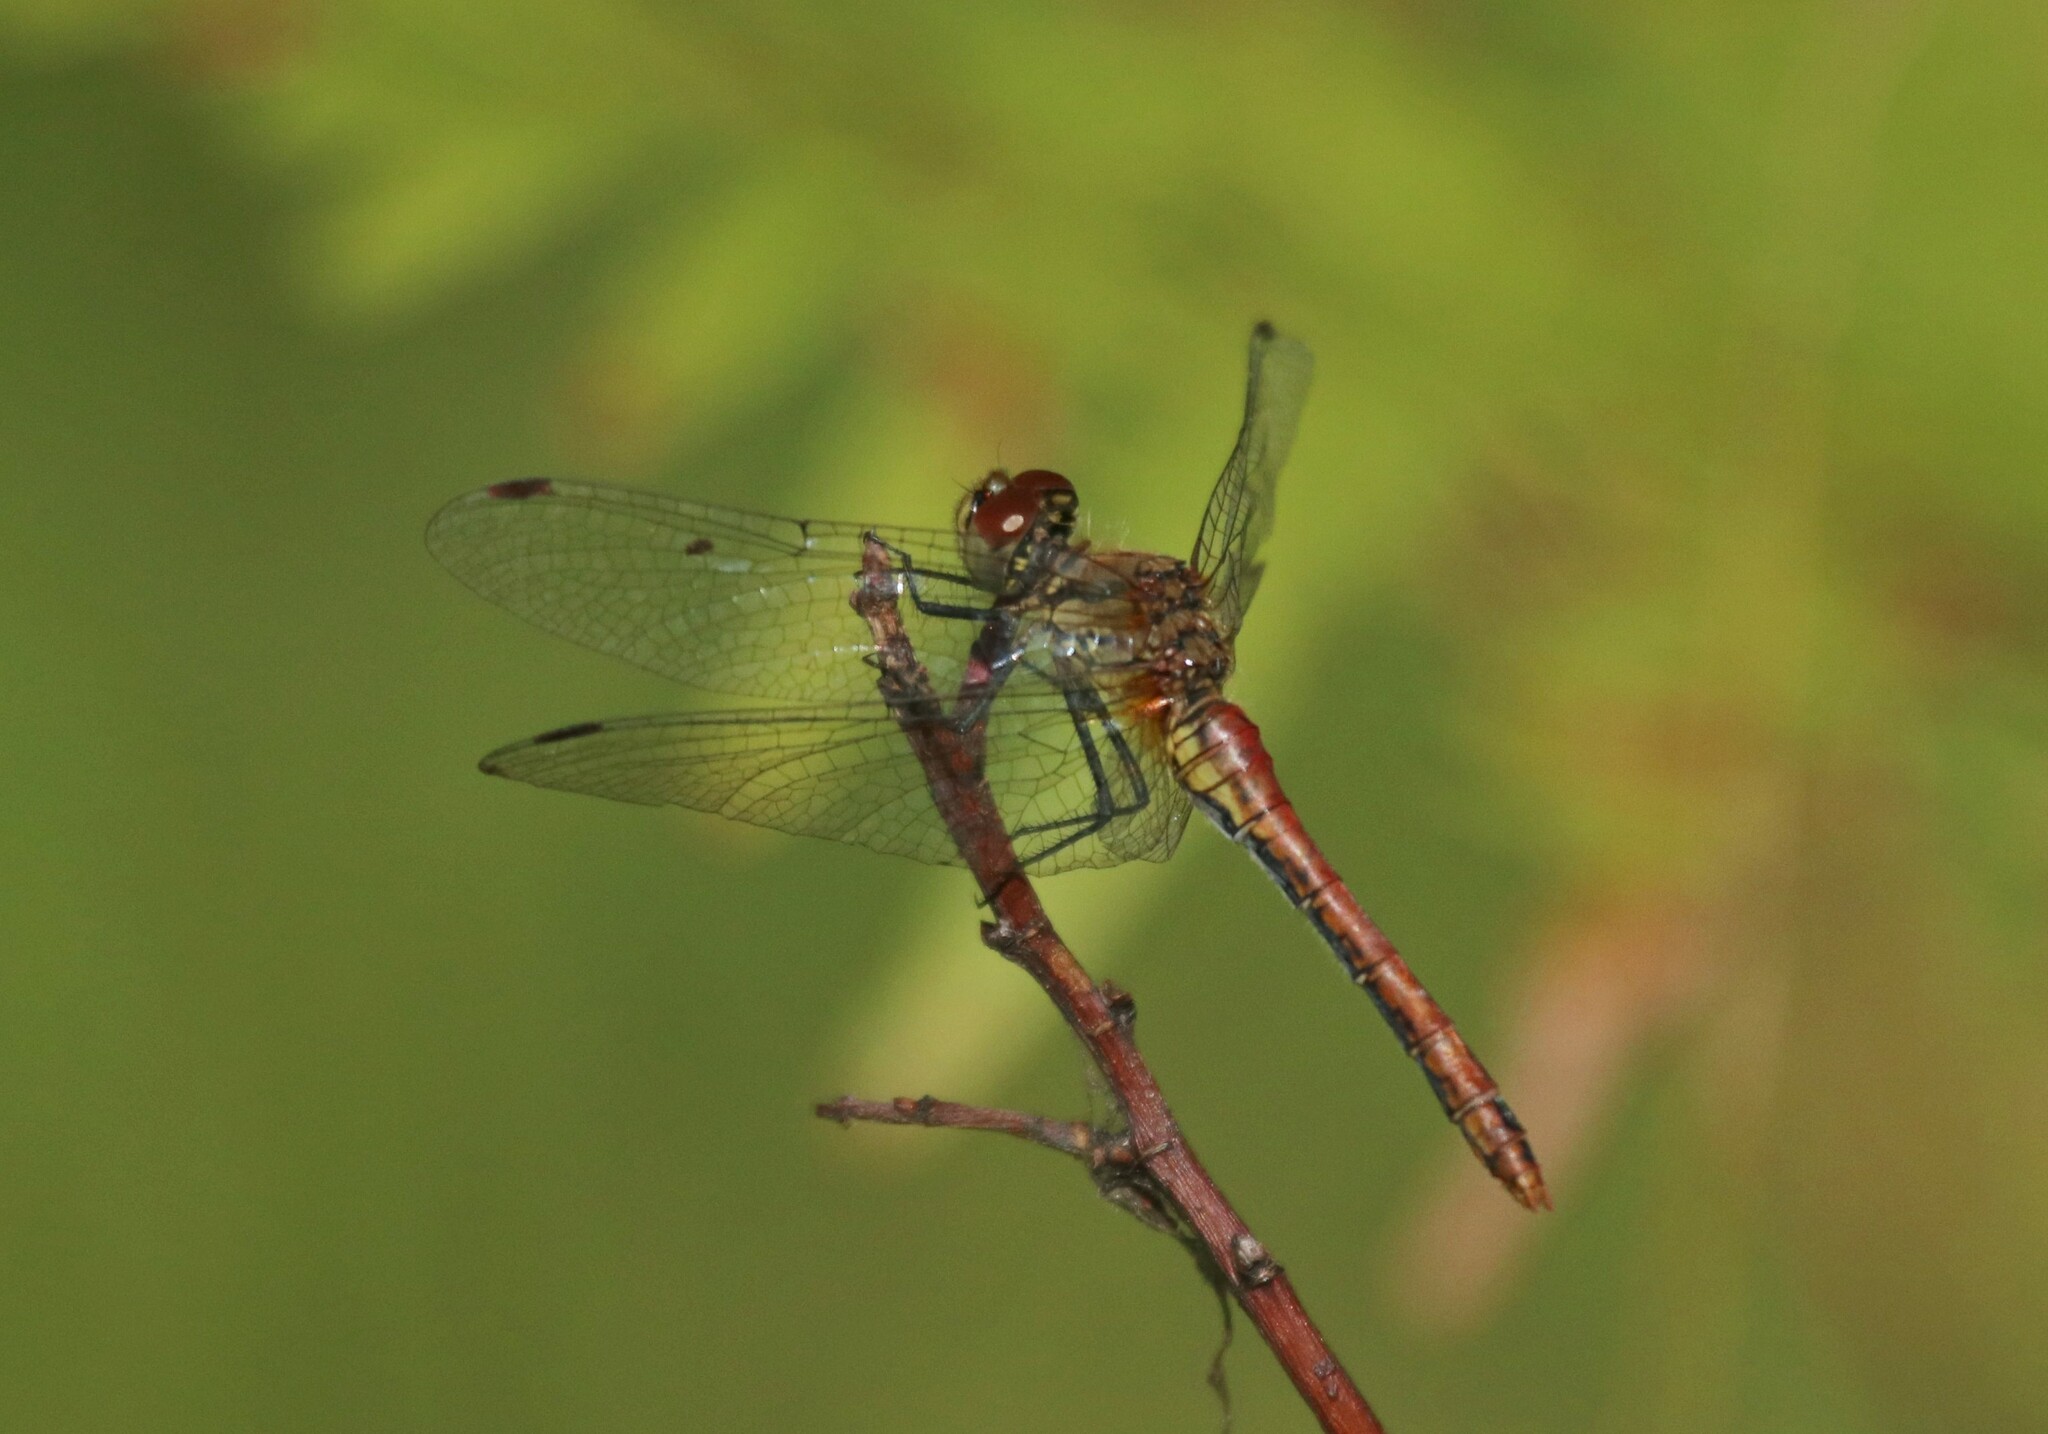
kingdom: Animalia
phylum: Arthropoda
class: Insecta
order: Odonata
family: Libellulidae
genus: Sympetrum
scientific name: Sympetrum sanguineum
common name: Ruddy darter
